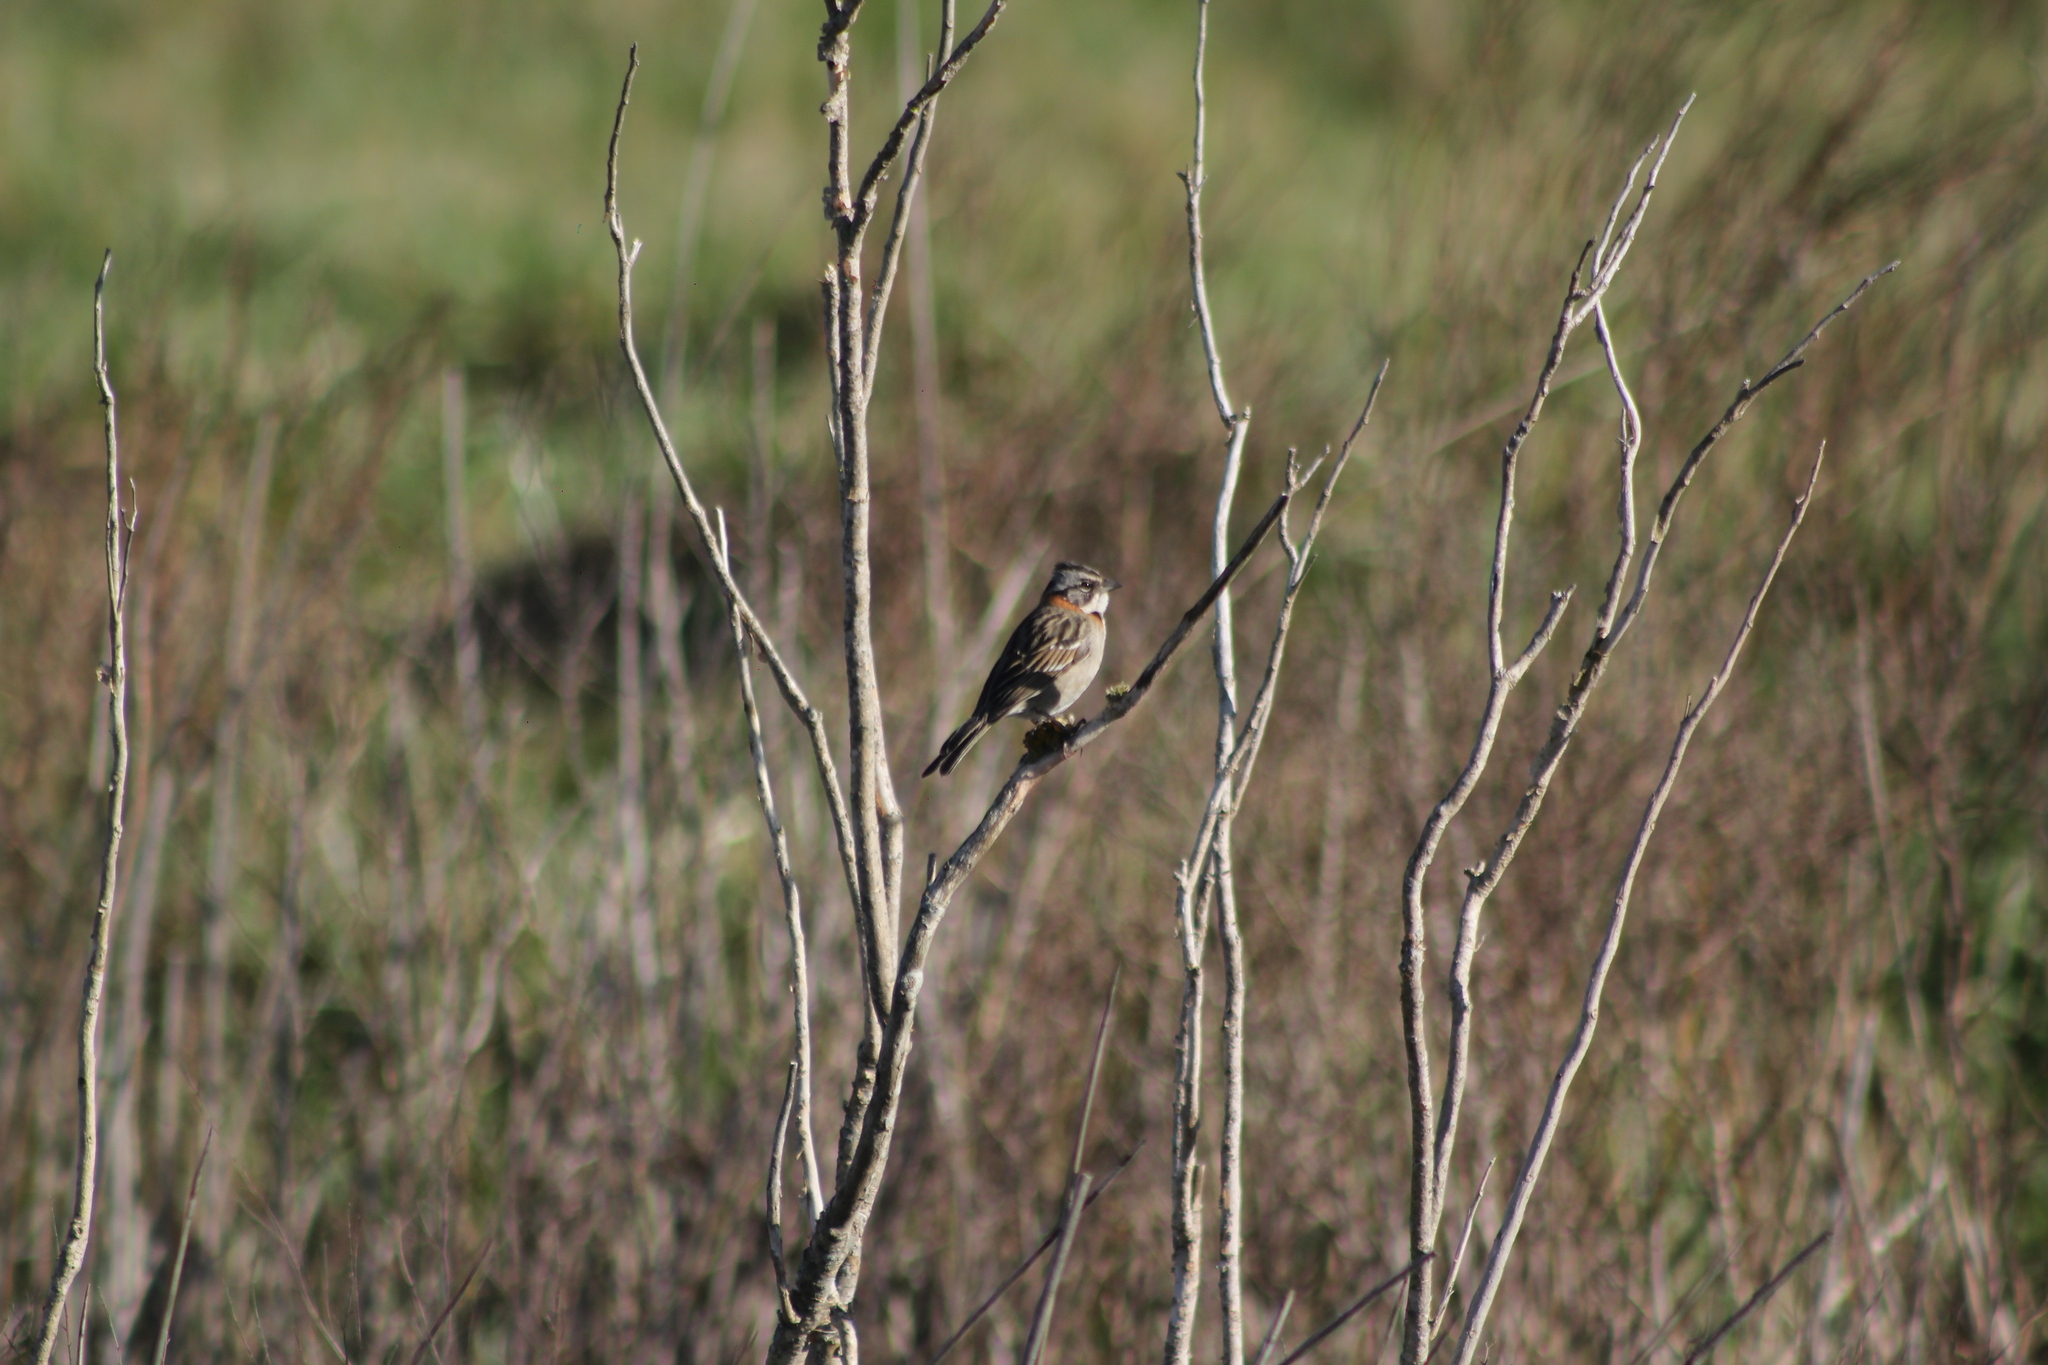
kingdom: Animalia
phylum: Chordata
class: Aves
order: Passeriformes
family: Passerellidae
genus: Zonotrichia
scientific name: Zonotrichia capensis
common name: Rufous-collared sparrow
